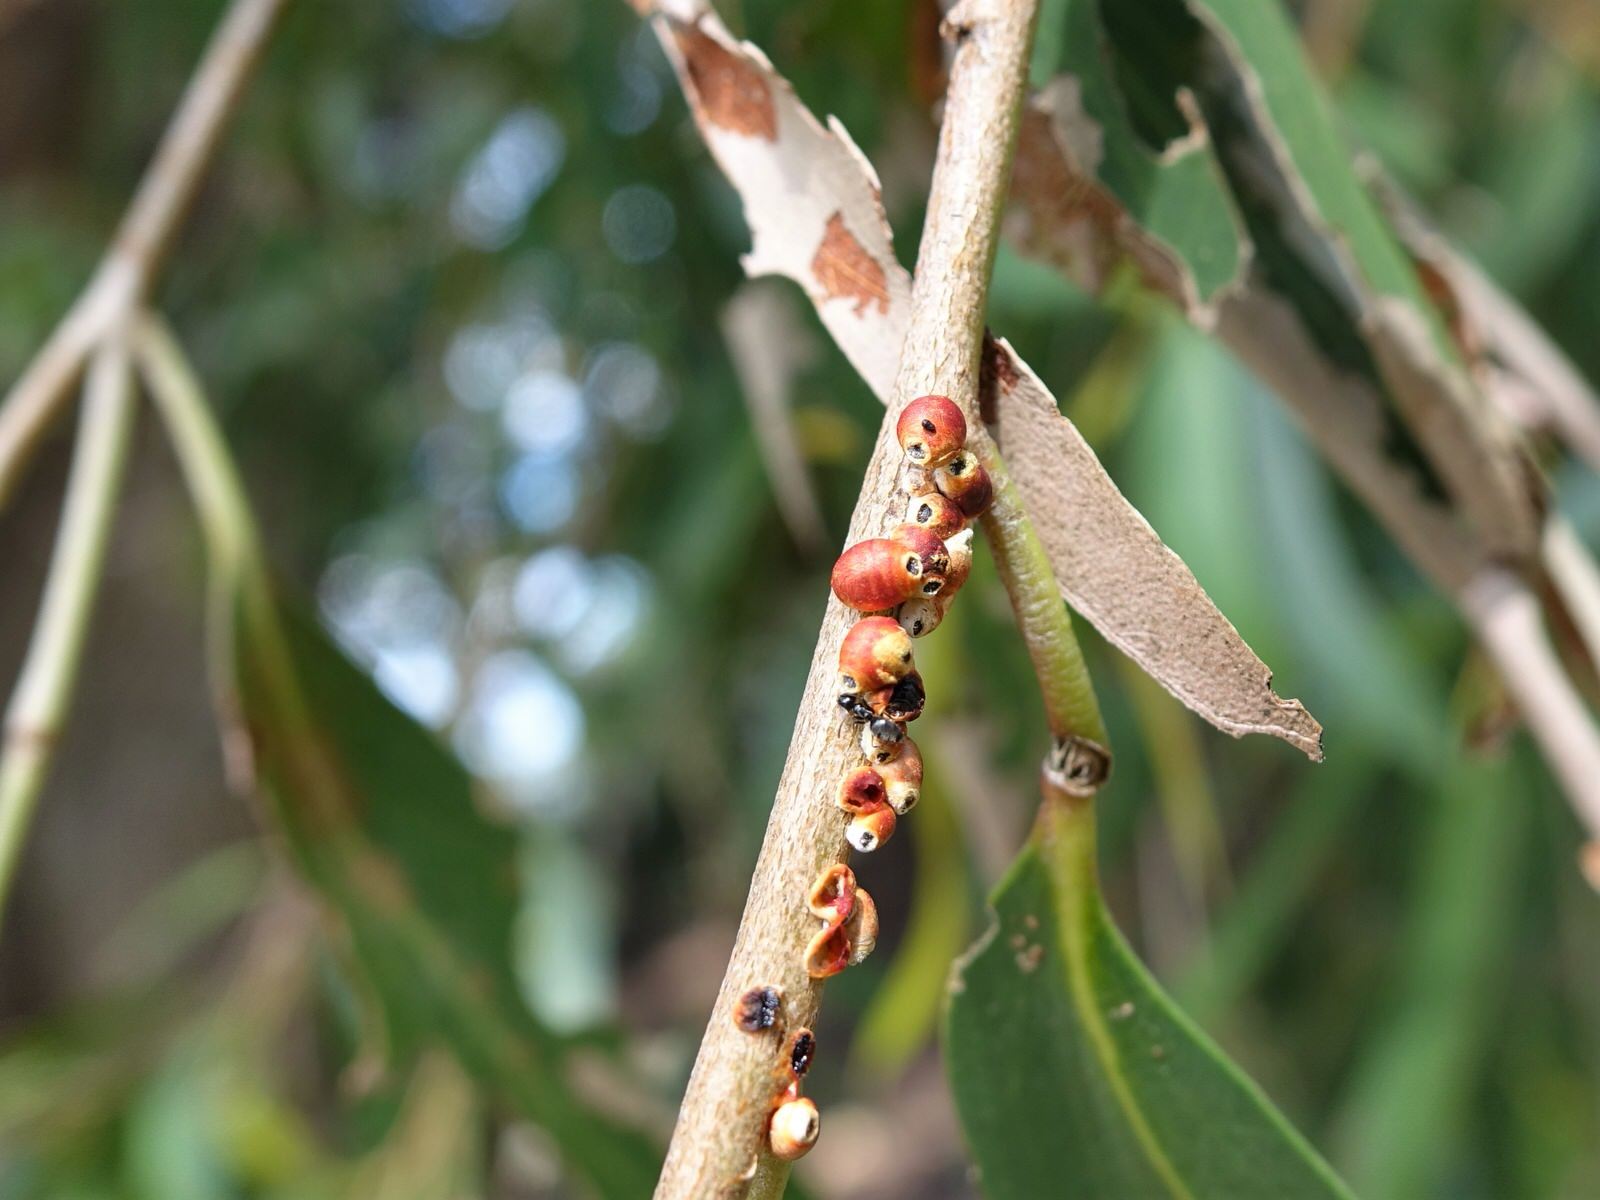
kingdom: Animalia
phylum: Arthropoda
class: Insecta
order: Hemiptera
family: Eriococcidae
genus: Eriococcus
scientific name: Eriococcus coriaceus
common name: Blue gum scale
